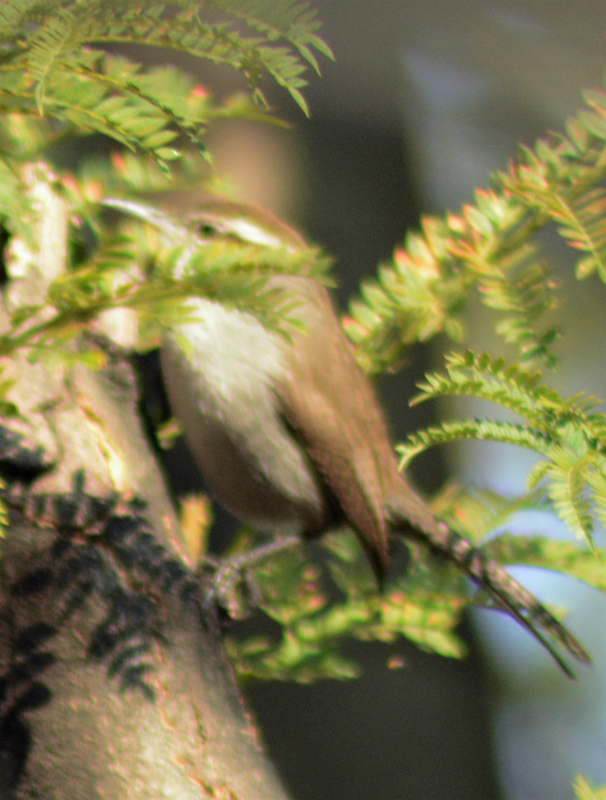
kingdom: Animalia
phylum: Chordata
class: Aves
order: Passeriformes
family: Troglodytidae
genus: Thryomanes
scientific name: Thryomanes bewickii
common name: Bewick's wren
